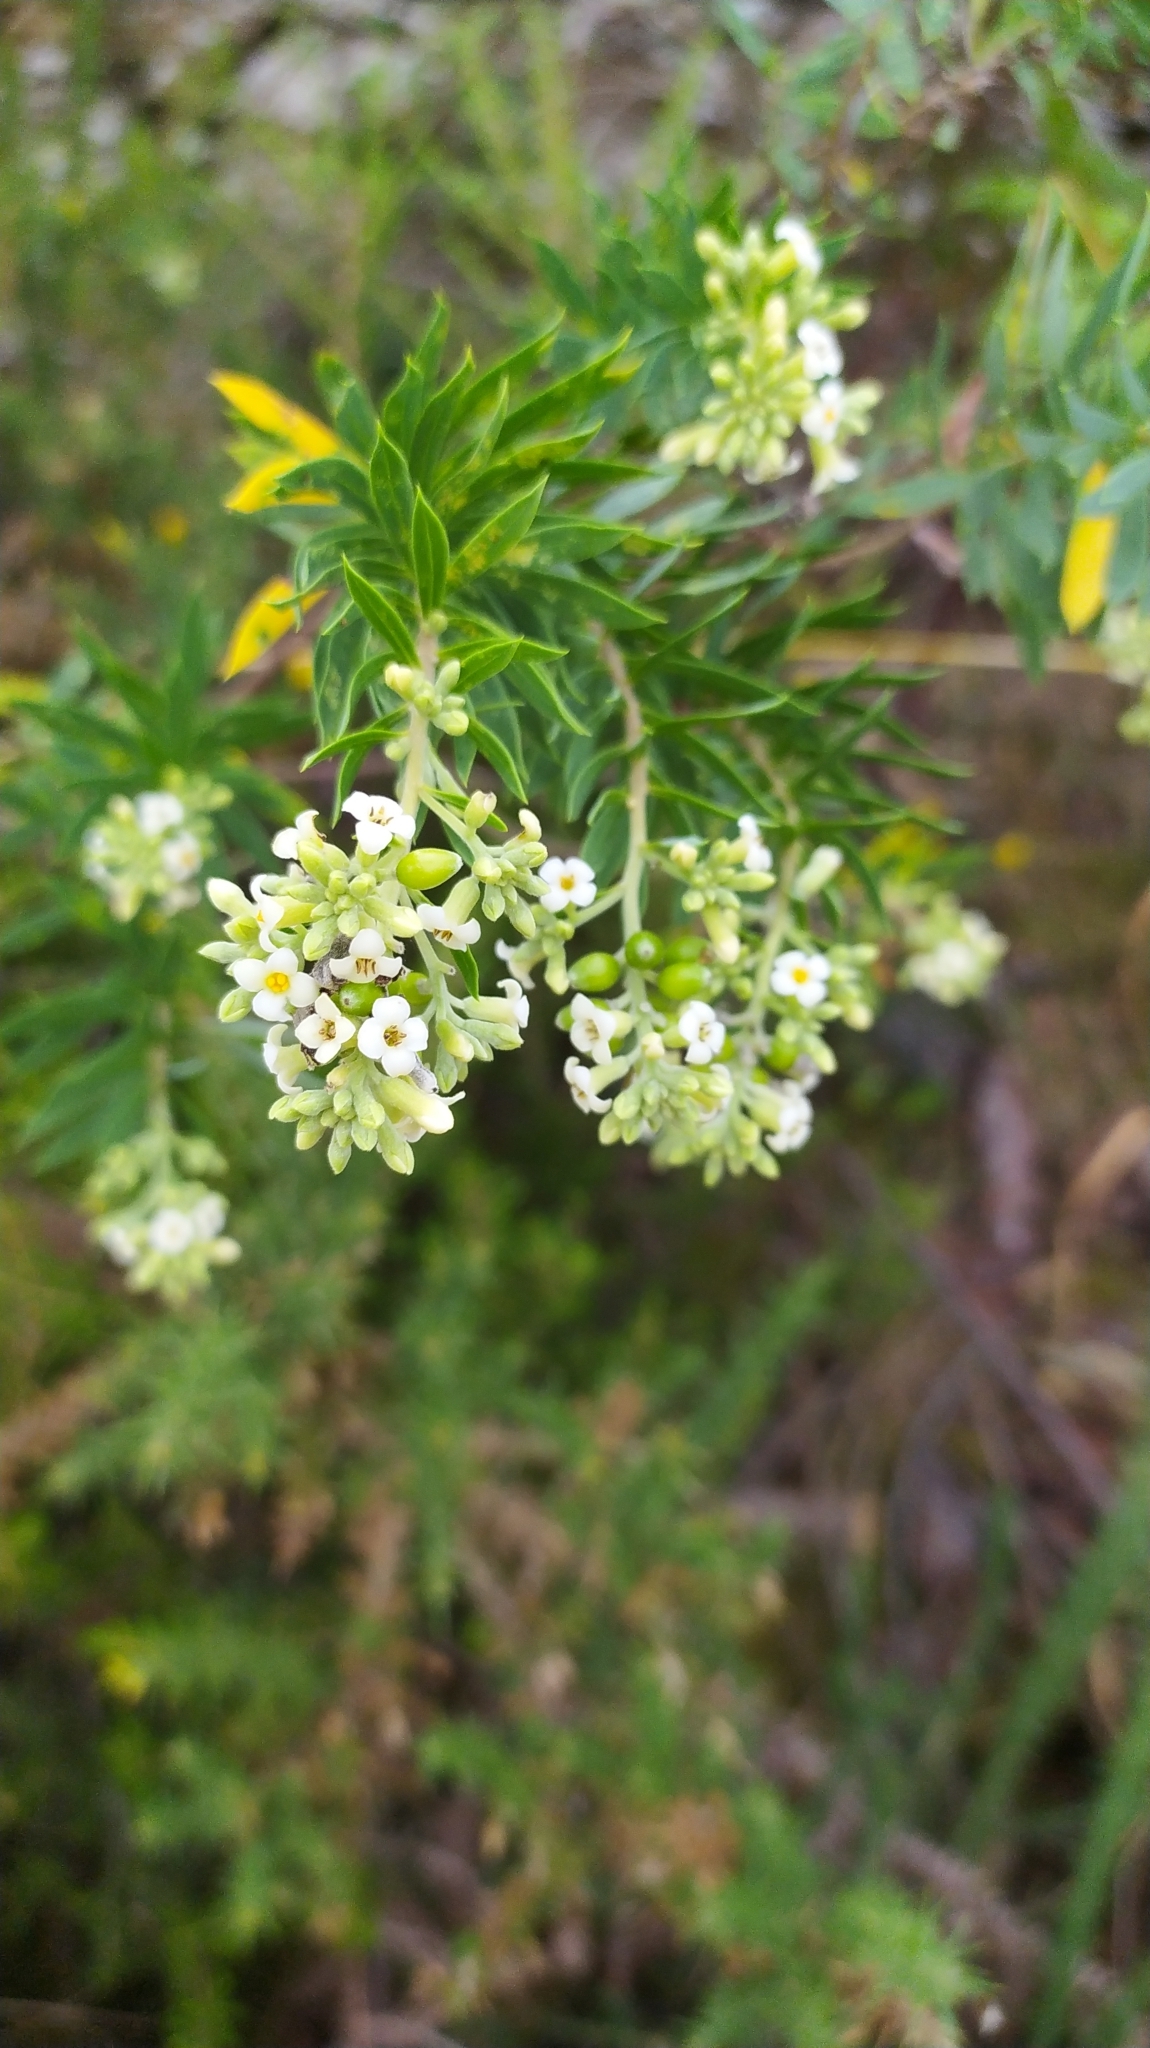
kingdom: Plantae
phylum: Tracheophyta
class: Magnoliopsida
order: Malvales
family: Thymelaeaceae
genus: Daphne
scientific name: Daphne gnidium
